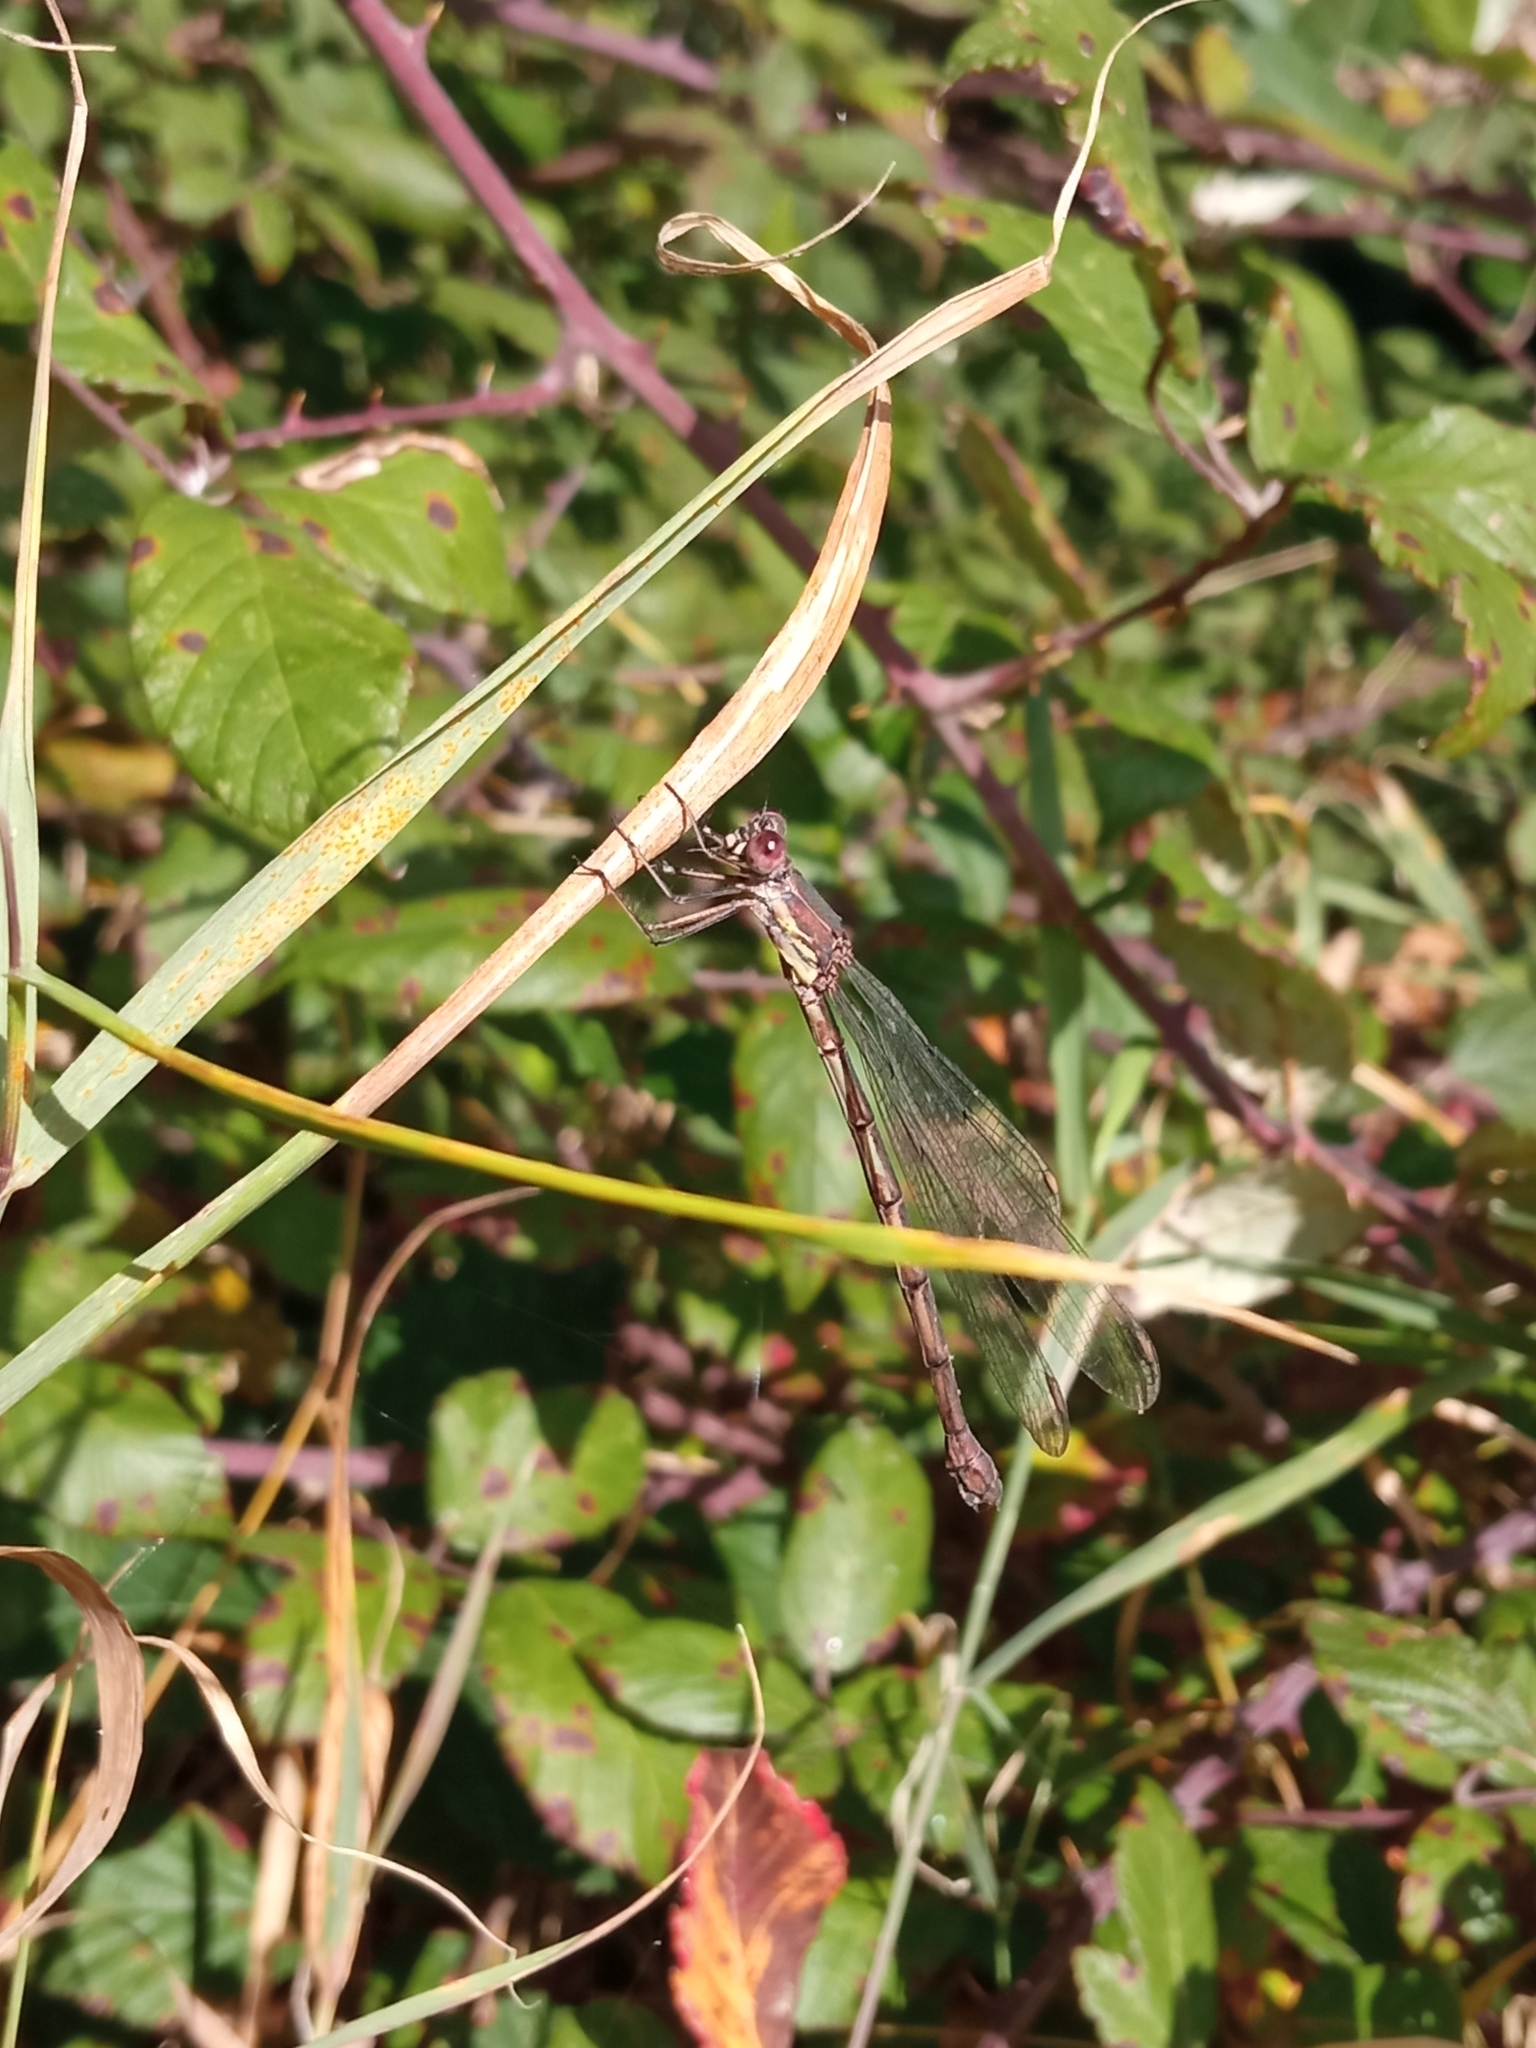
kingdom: Animalia
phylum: Arthropoda
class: Insecta
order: Odonata
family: Lestidae
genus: Chalcolestes
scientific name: Chalcolestes viridis
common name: Green emerald damselfly
